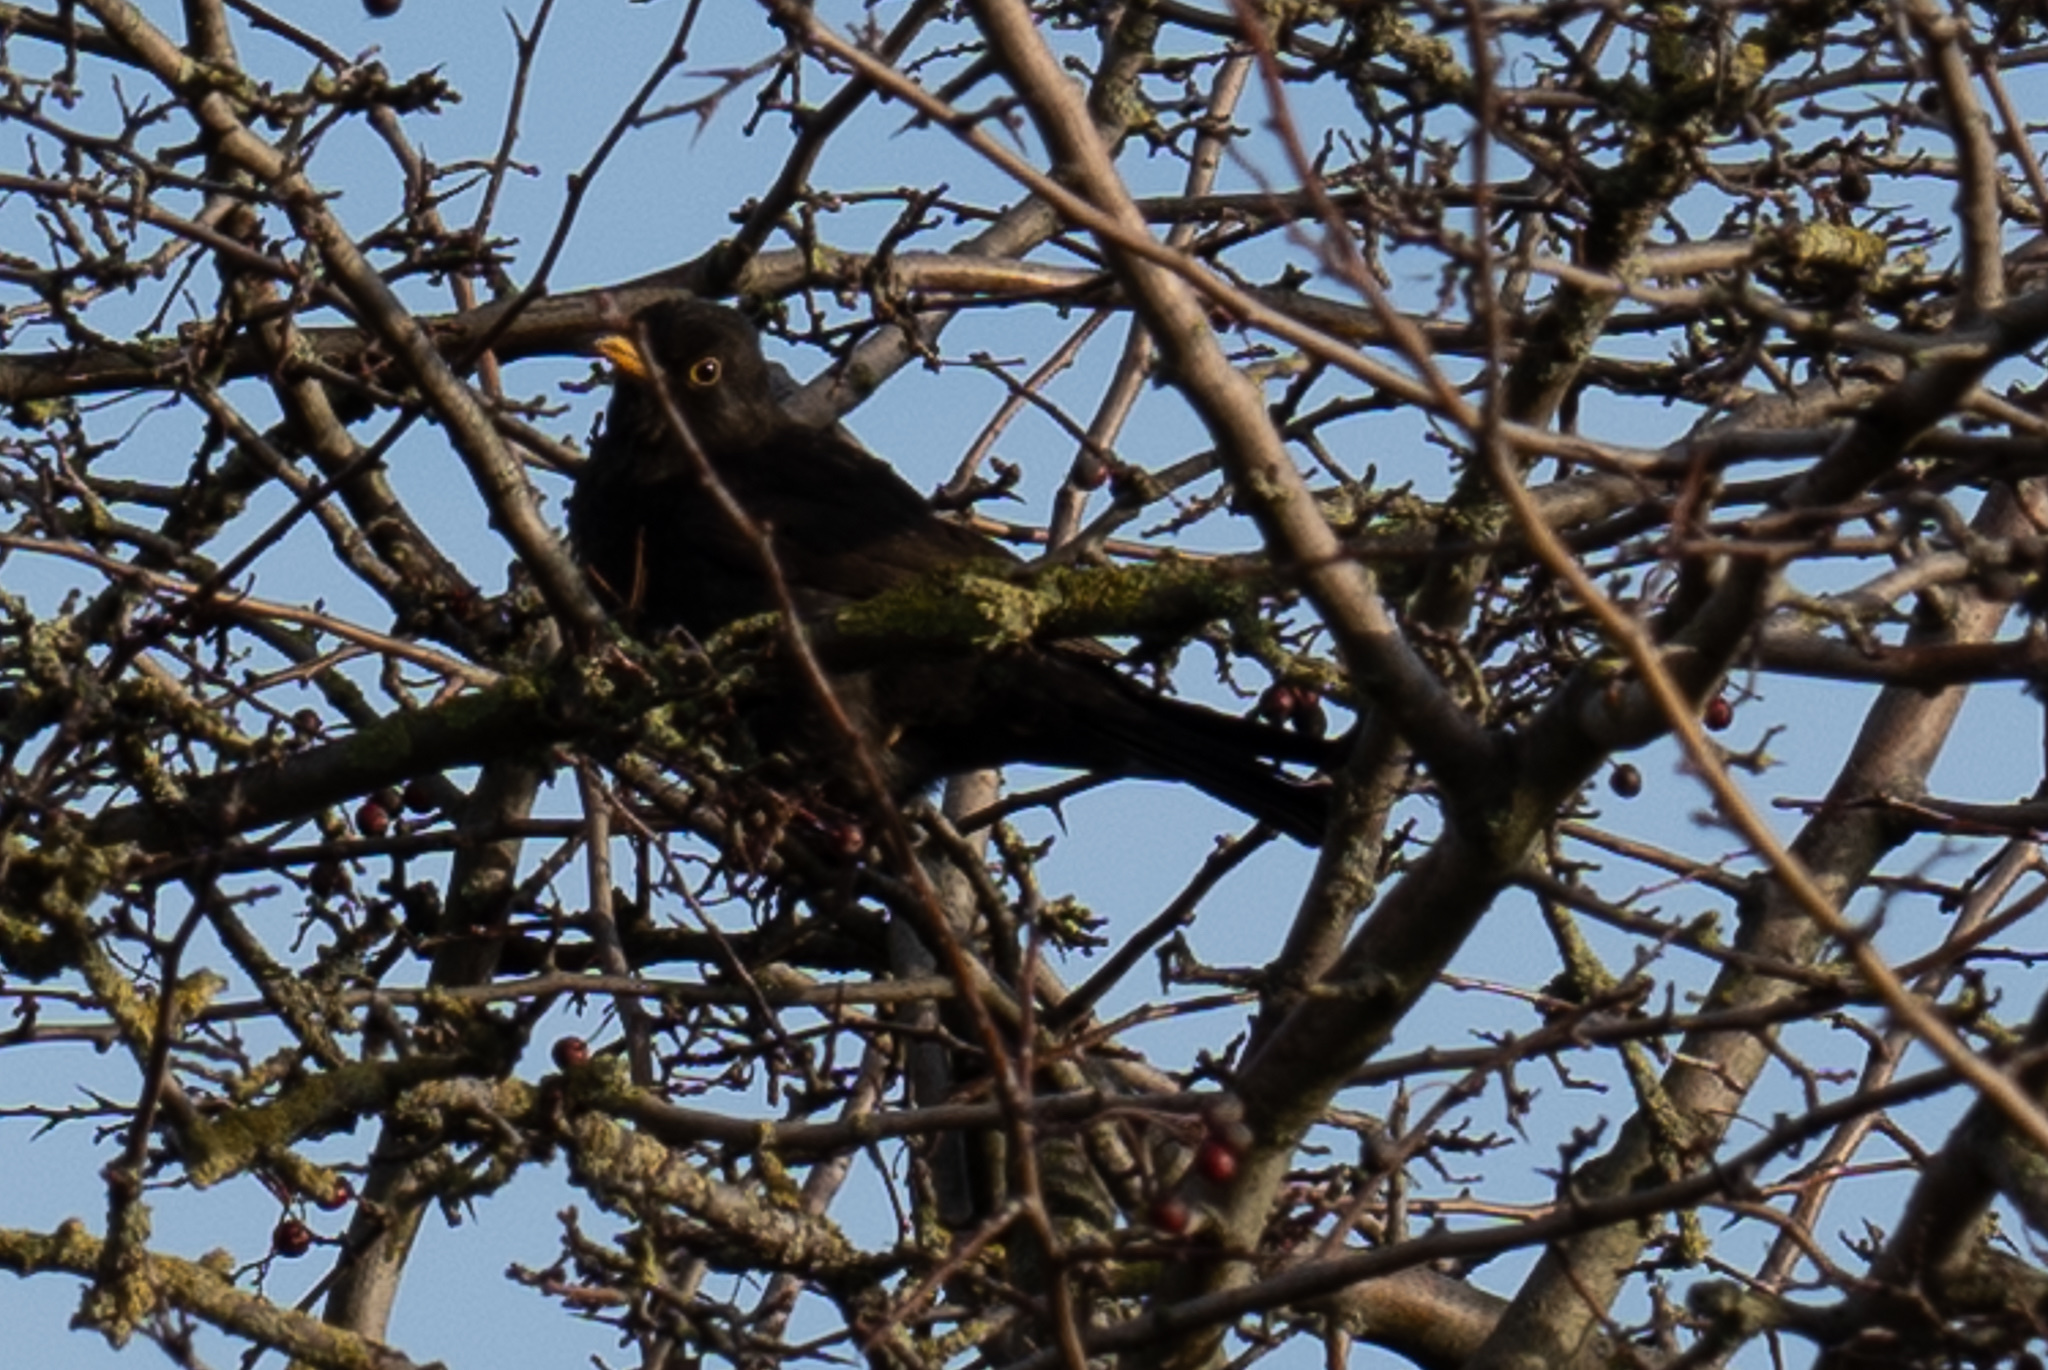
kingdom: Animalia
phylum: Chordata
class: Aves
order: Passeriformes
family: Turdidae
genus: Turdus
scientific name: Turdus merula
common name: Common blackbird
